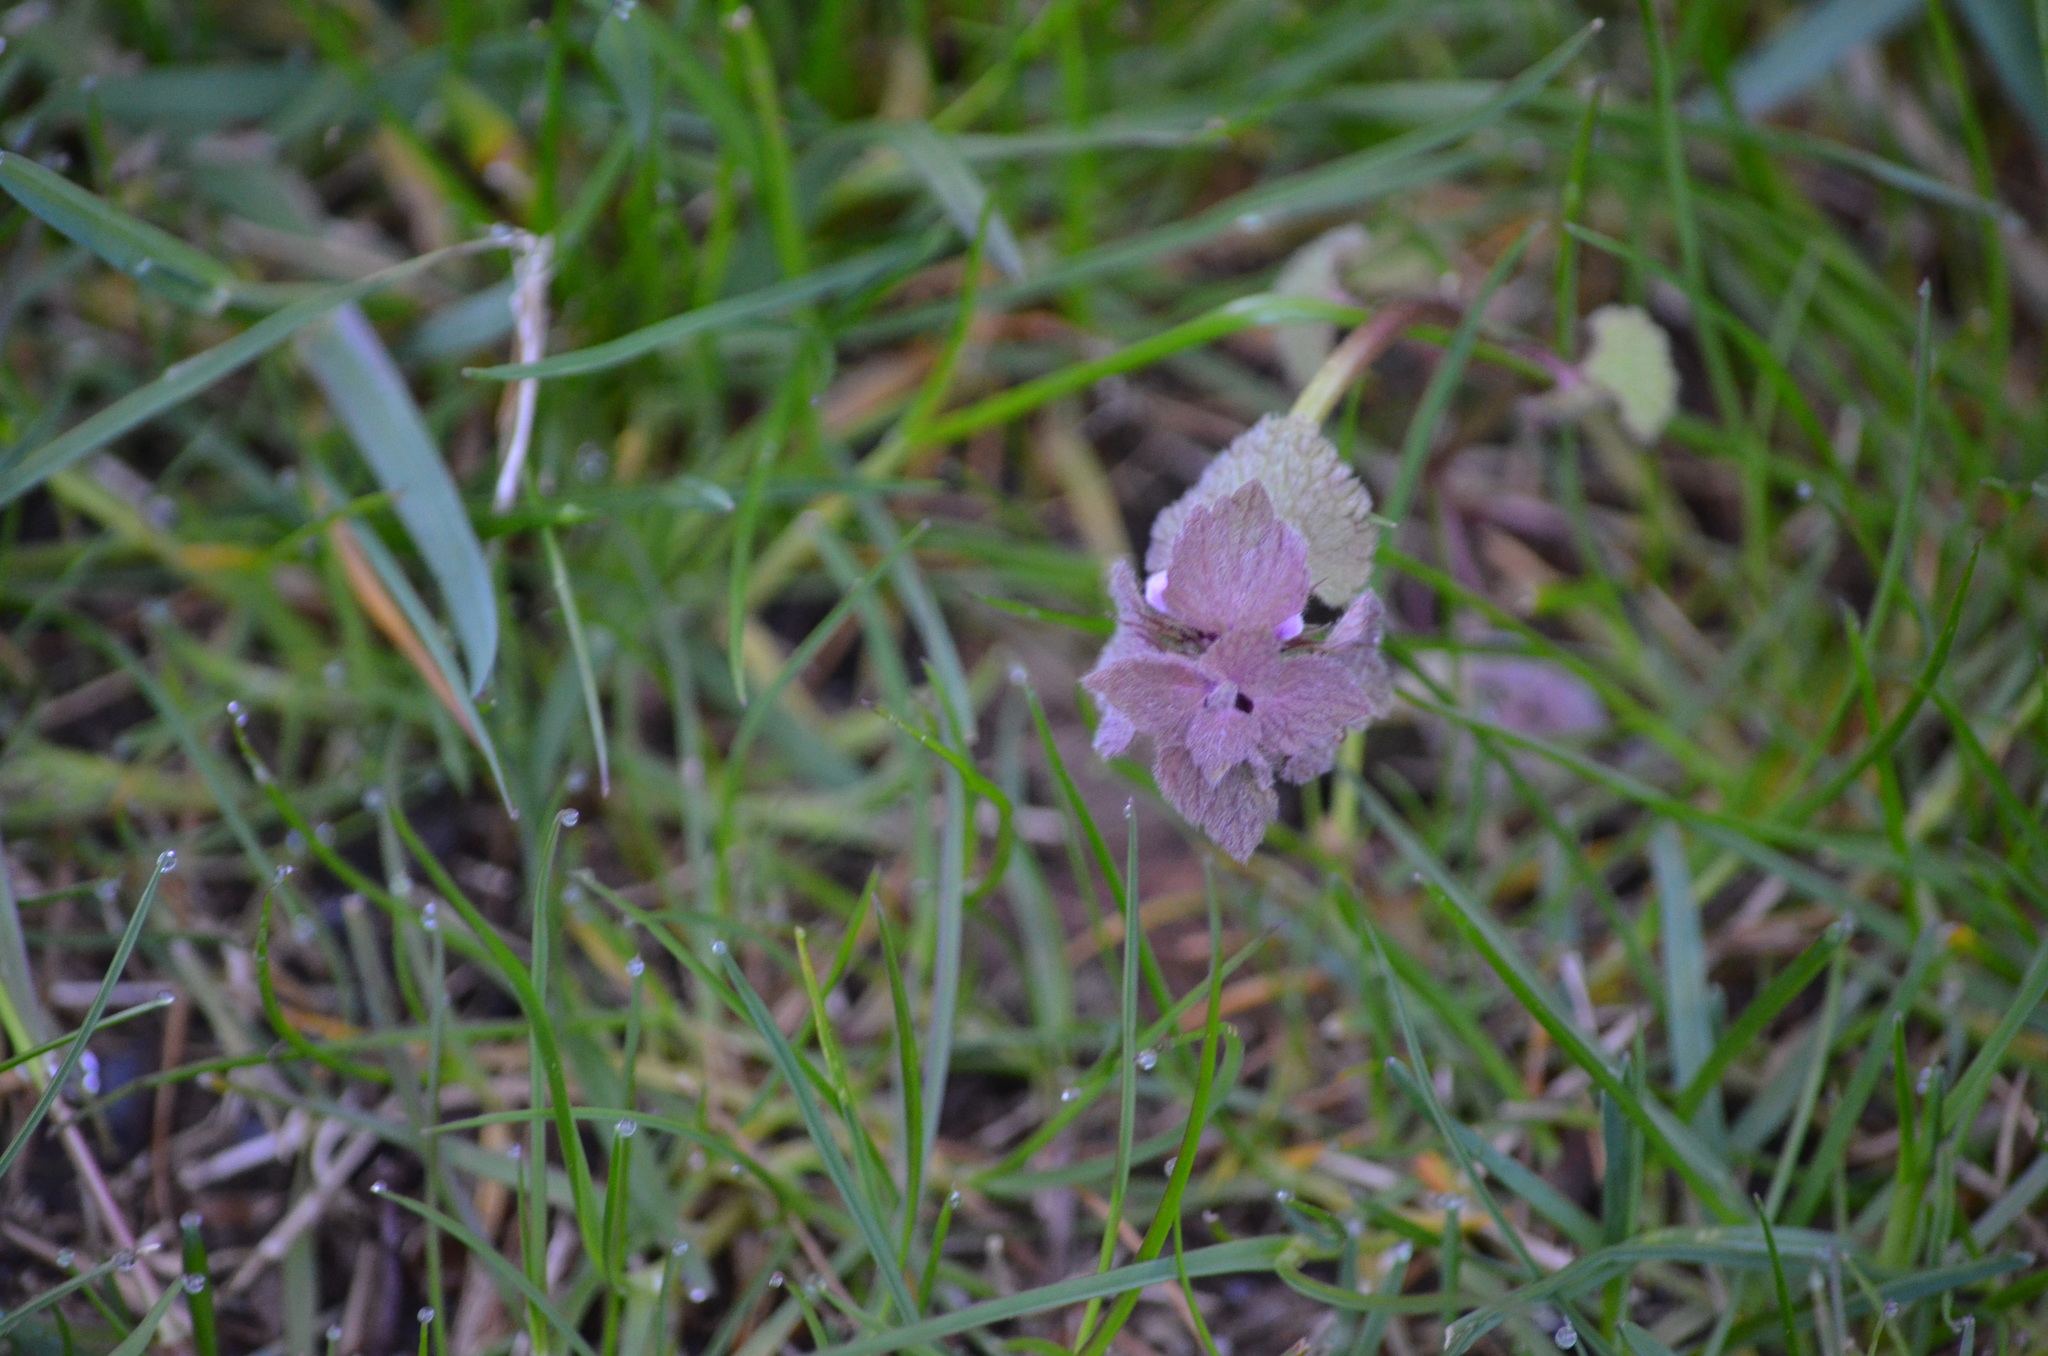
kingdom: Plantae
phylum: Tracheophyta
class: Magnoliopsida
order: Lamiales
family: Lamiaceae
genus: Lamium
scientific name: Lamium purpureum
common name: Red dead-nettle
